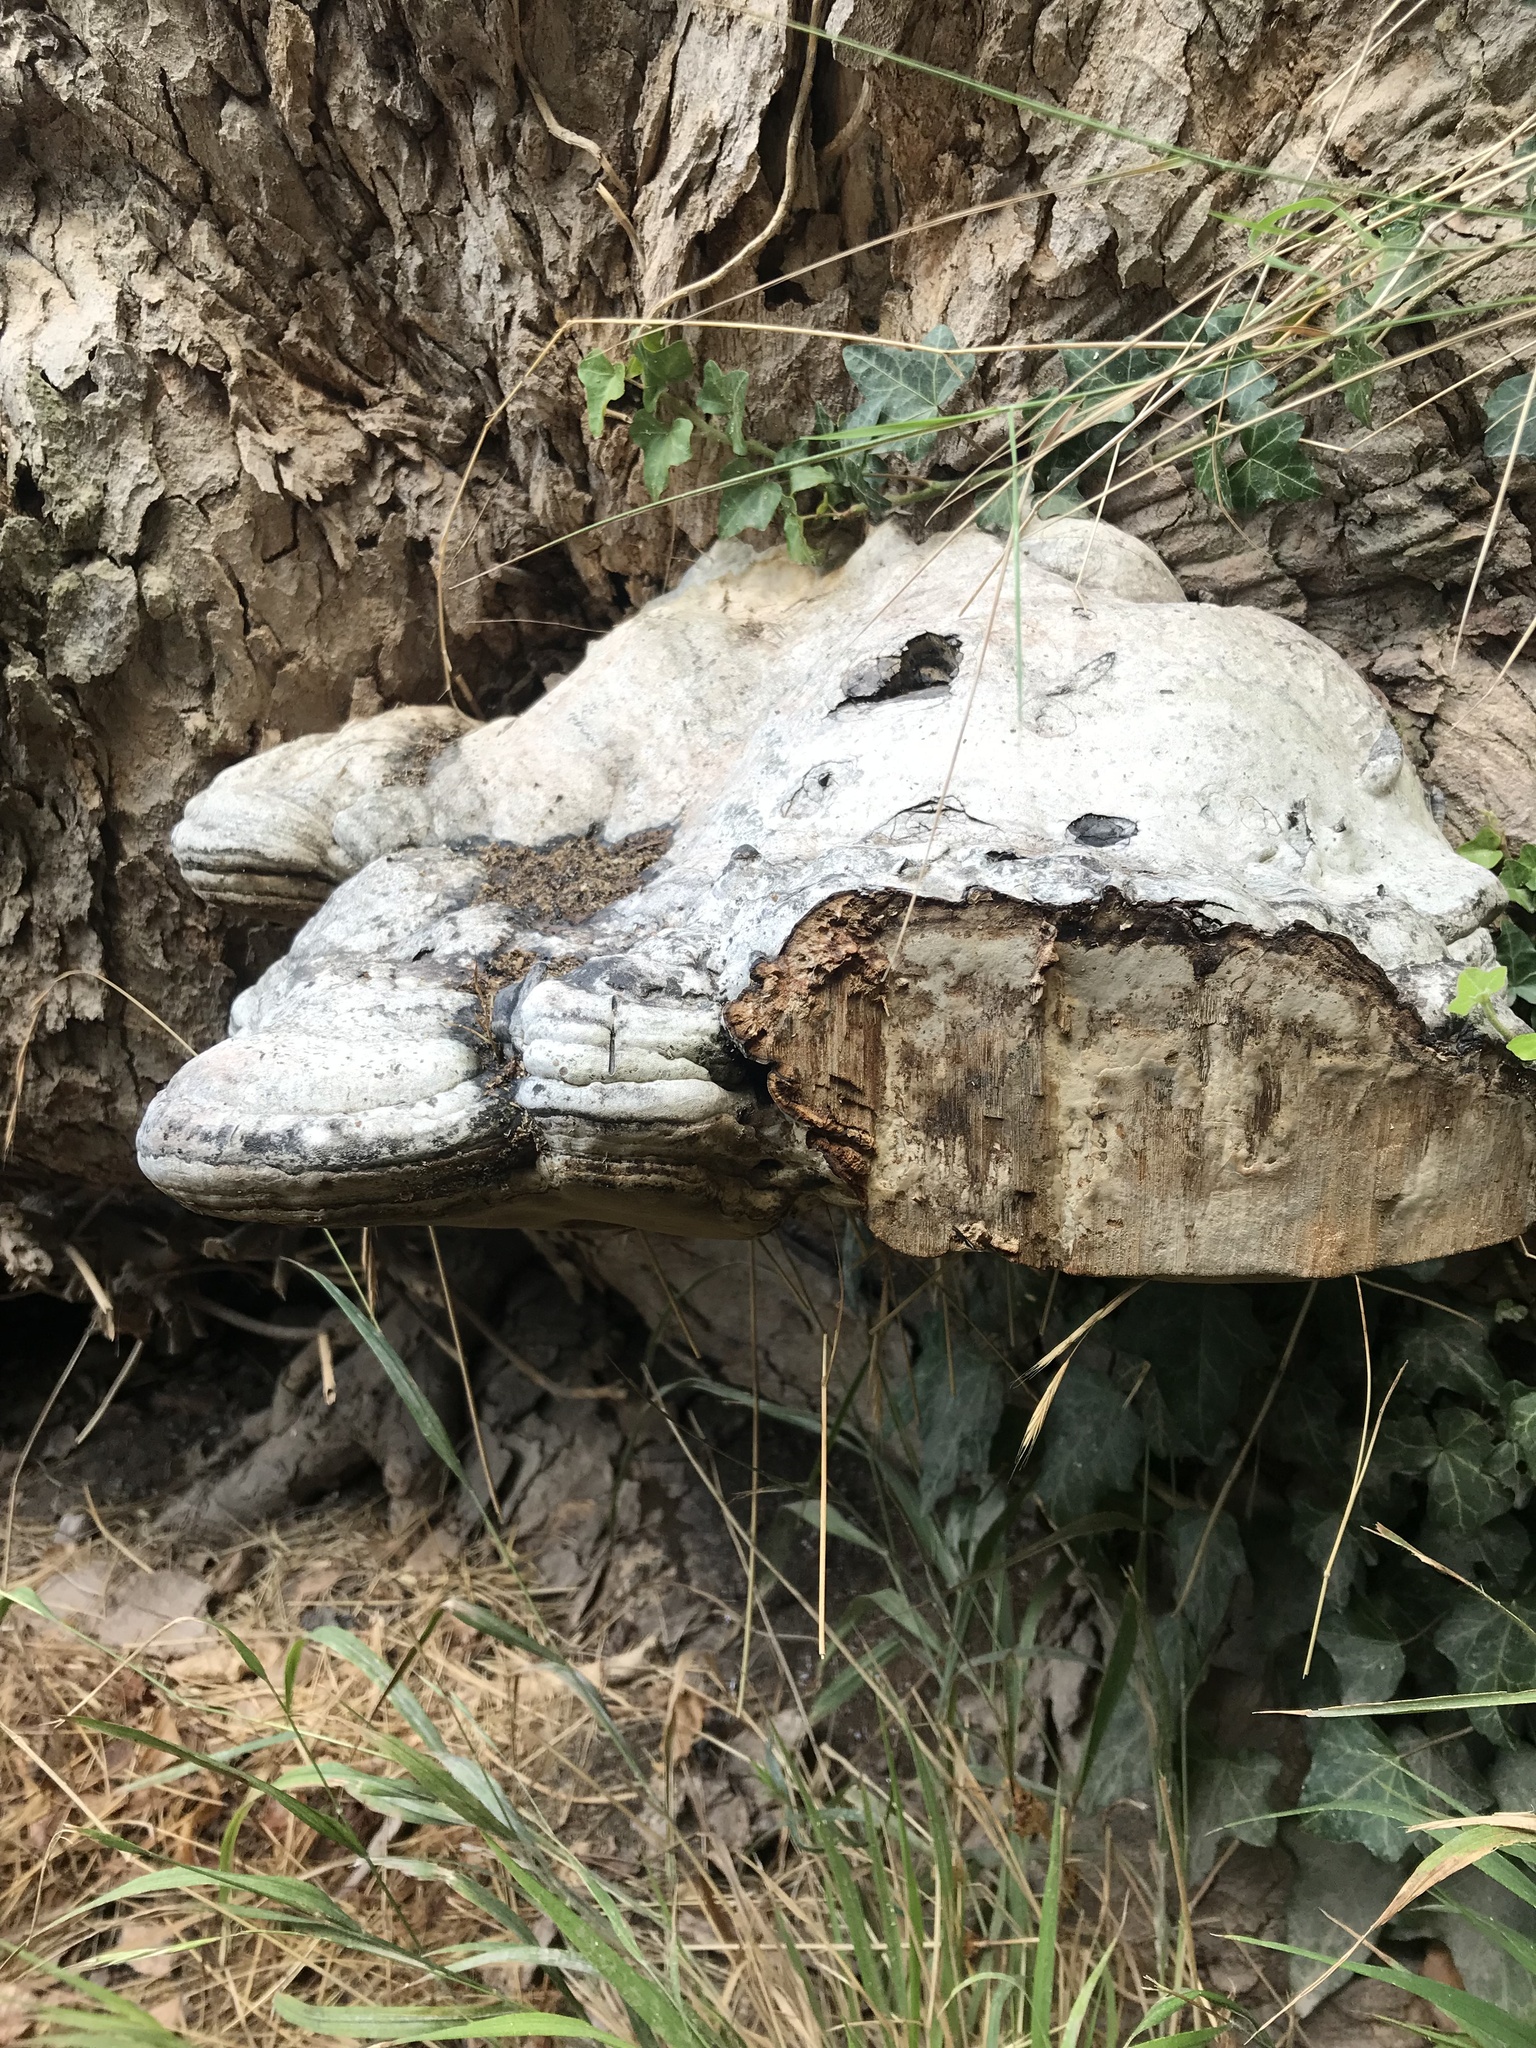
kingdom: Fungi
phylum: Basidiomycota
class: Agaricomycetes
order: Polyporales
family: Polyporaceae
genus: Fomes
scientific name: Fomes fomentarius
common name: Hoof fungus
